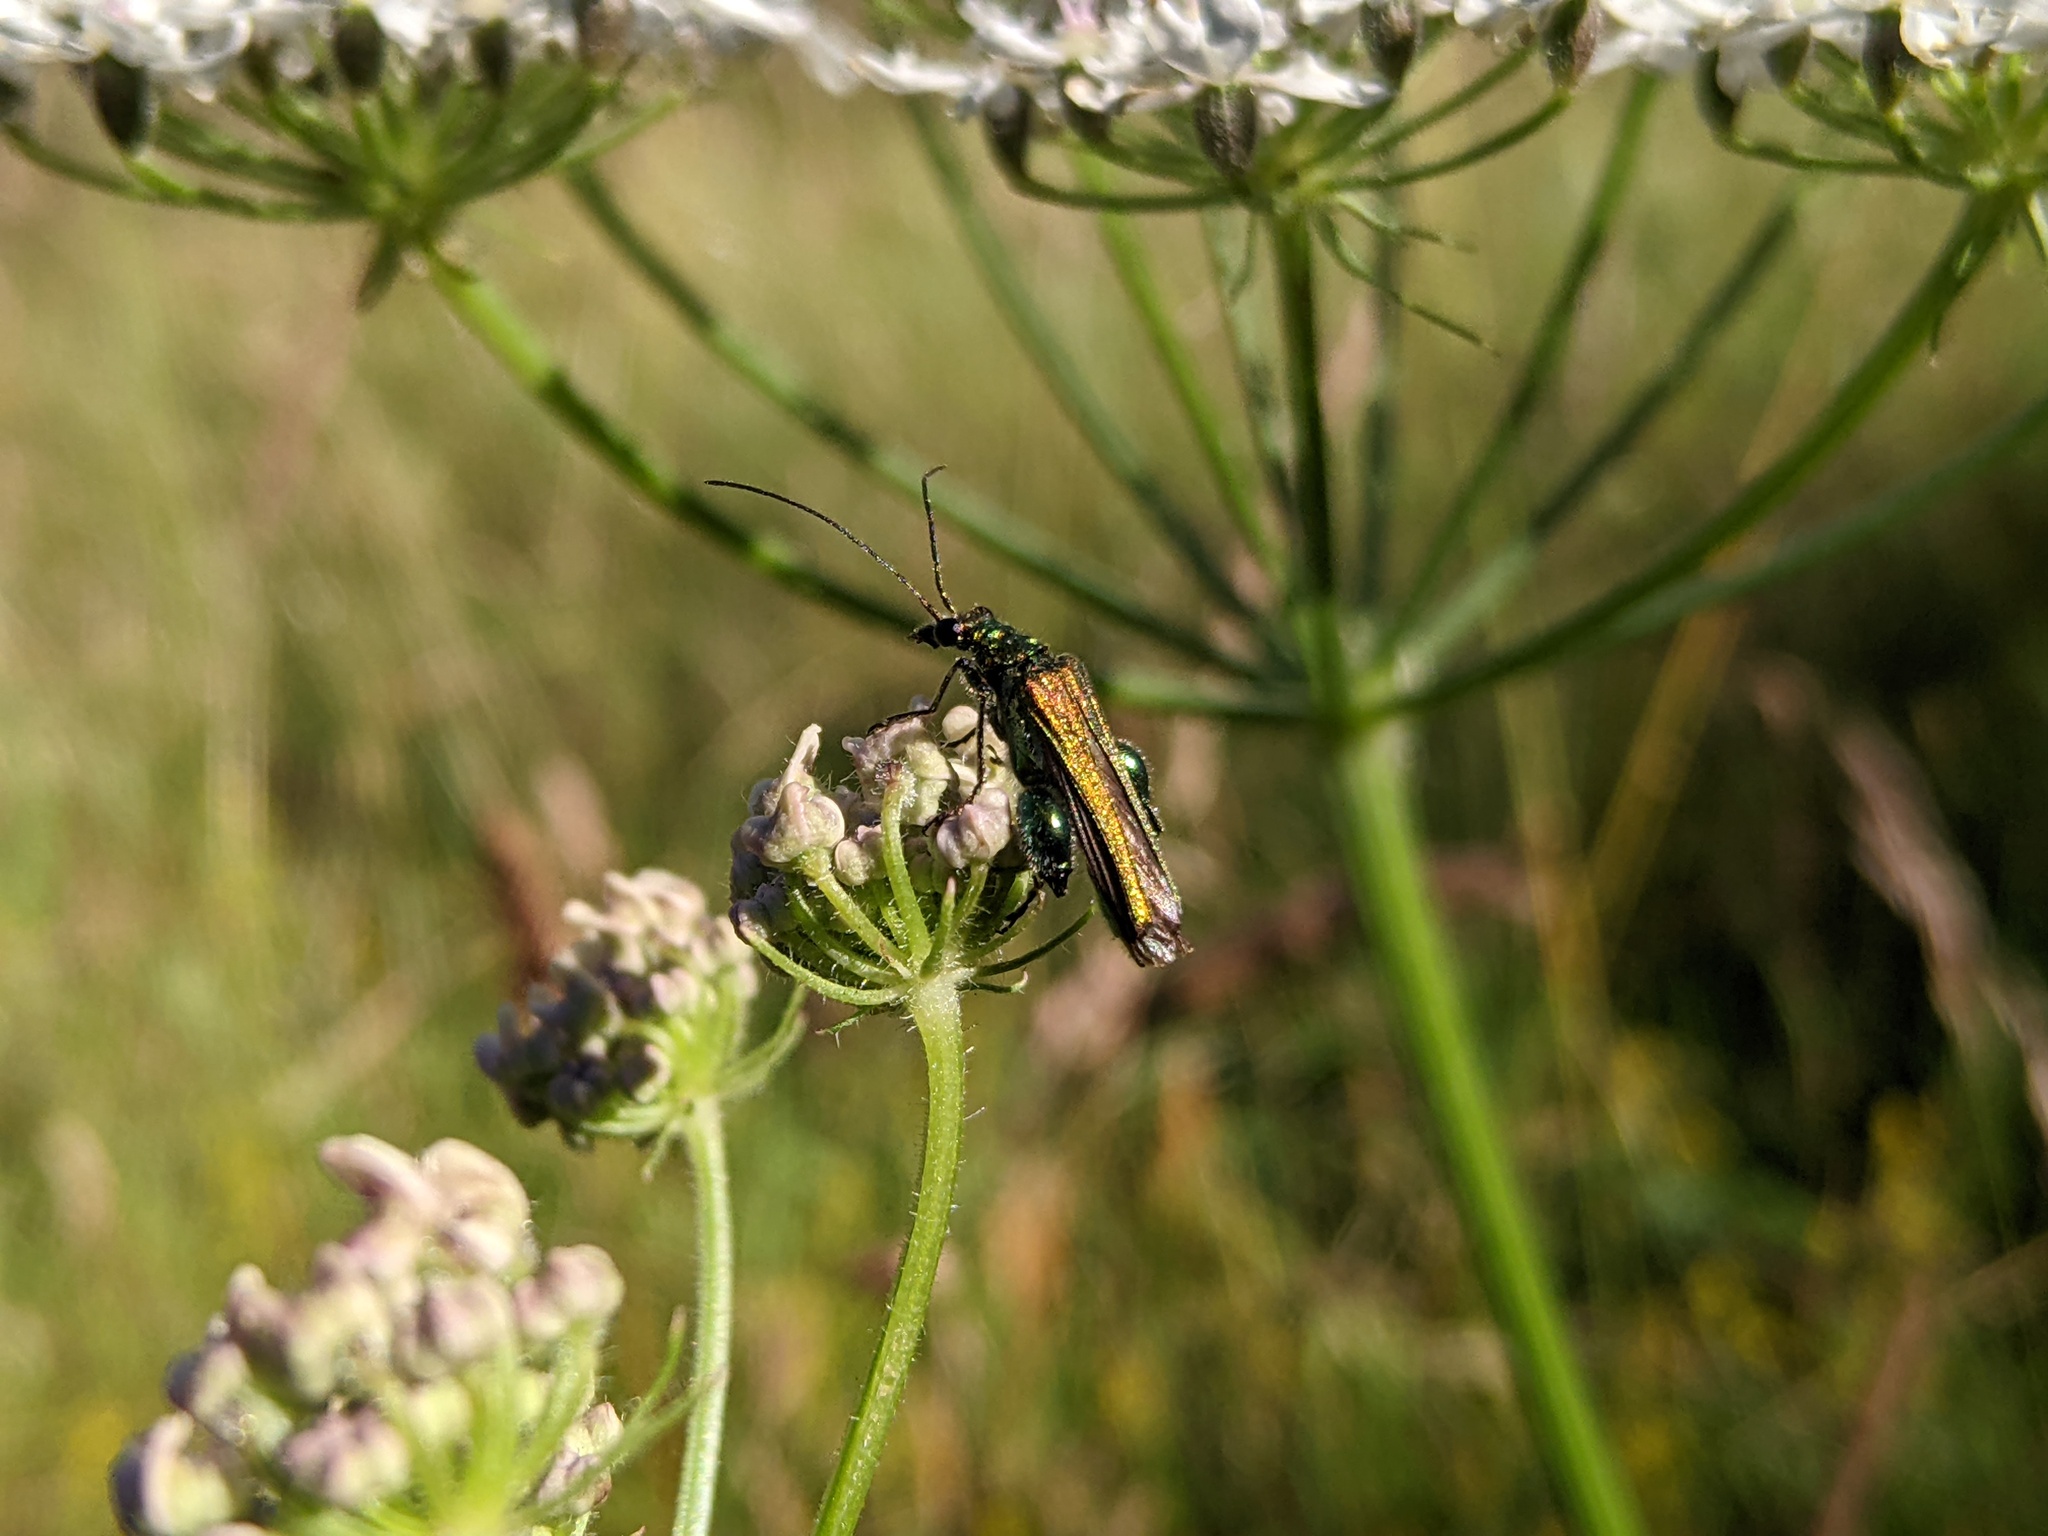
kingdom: Animalia
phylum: Arthropoda
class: Insecta
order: Coleoptera
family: Oedemeridae
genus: Oedemera
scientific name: Oedemera nobilis
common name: Swollen-thighed beetle
